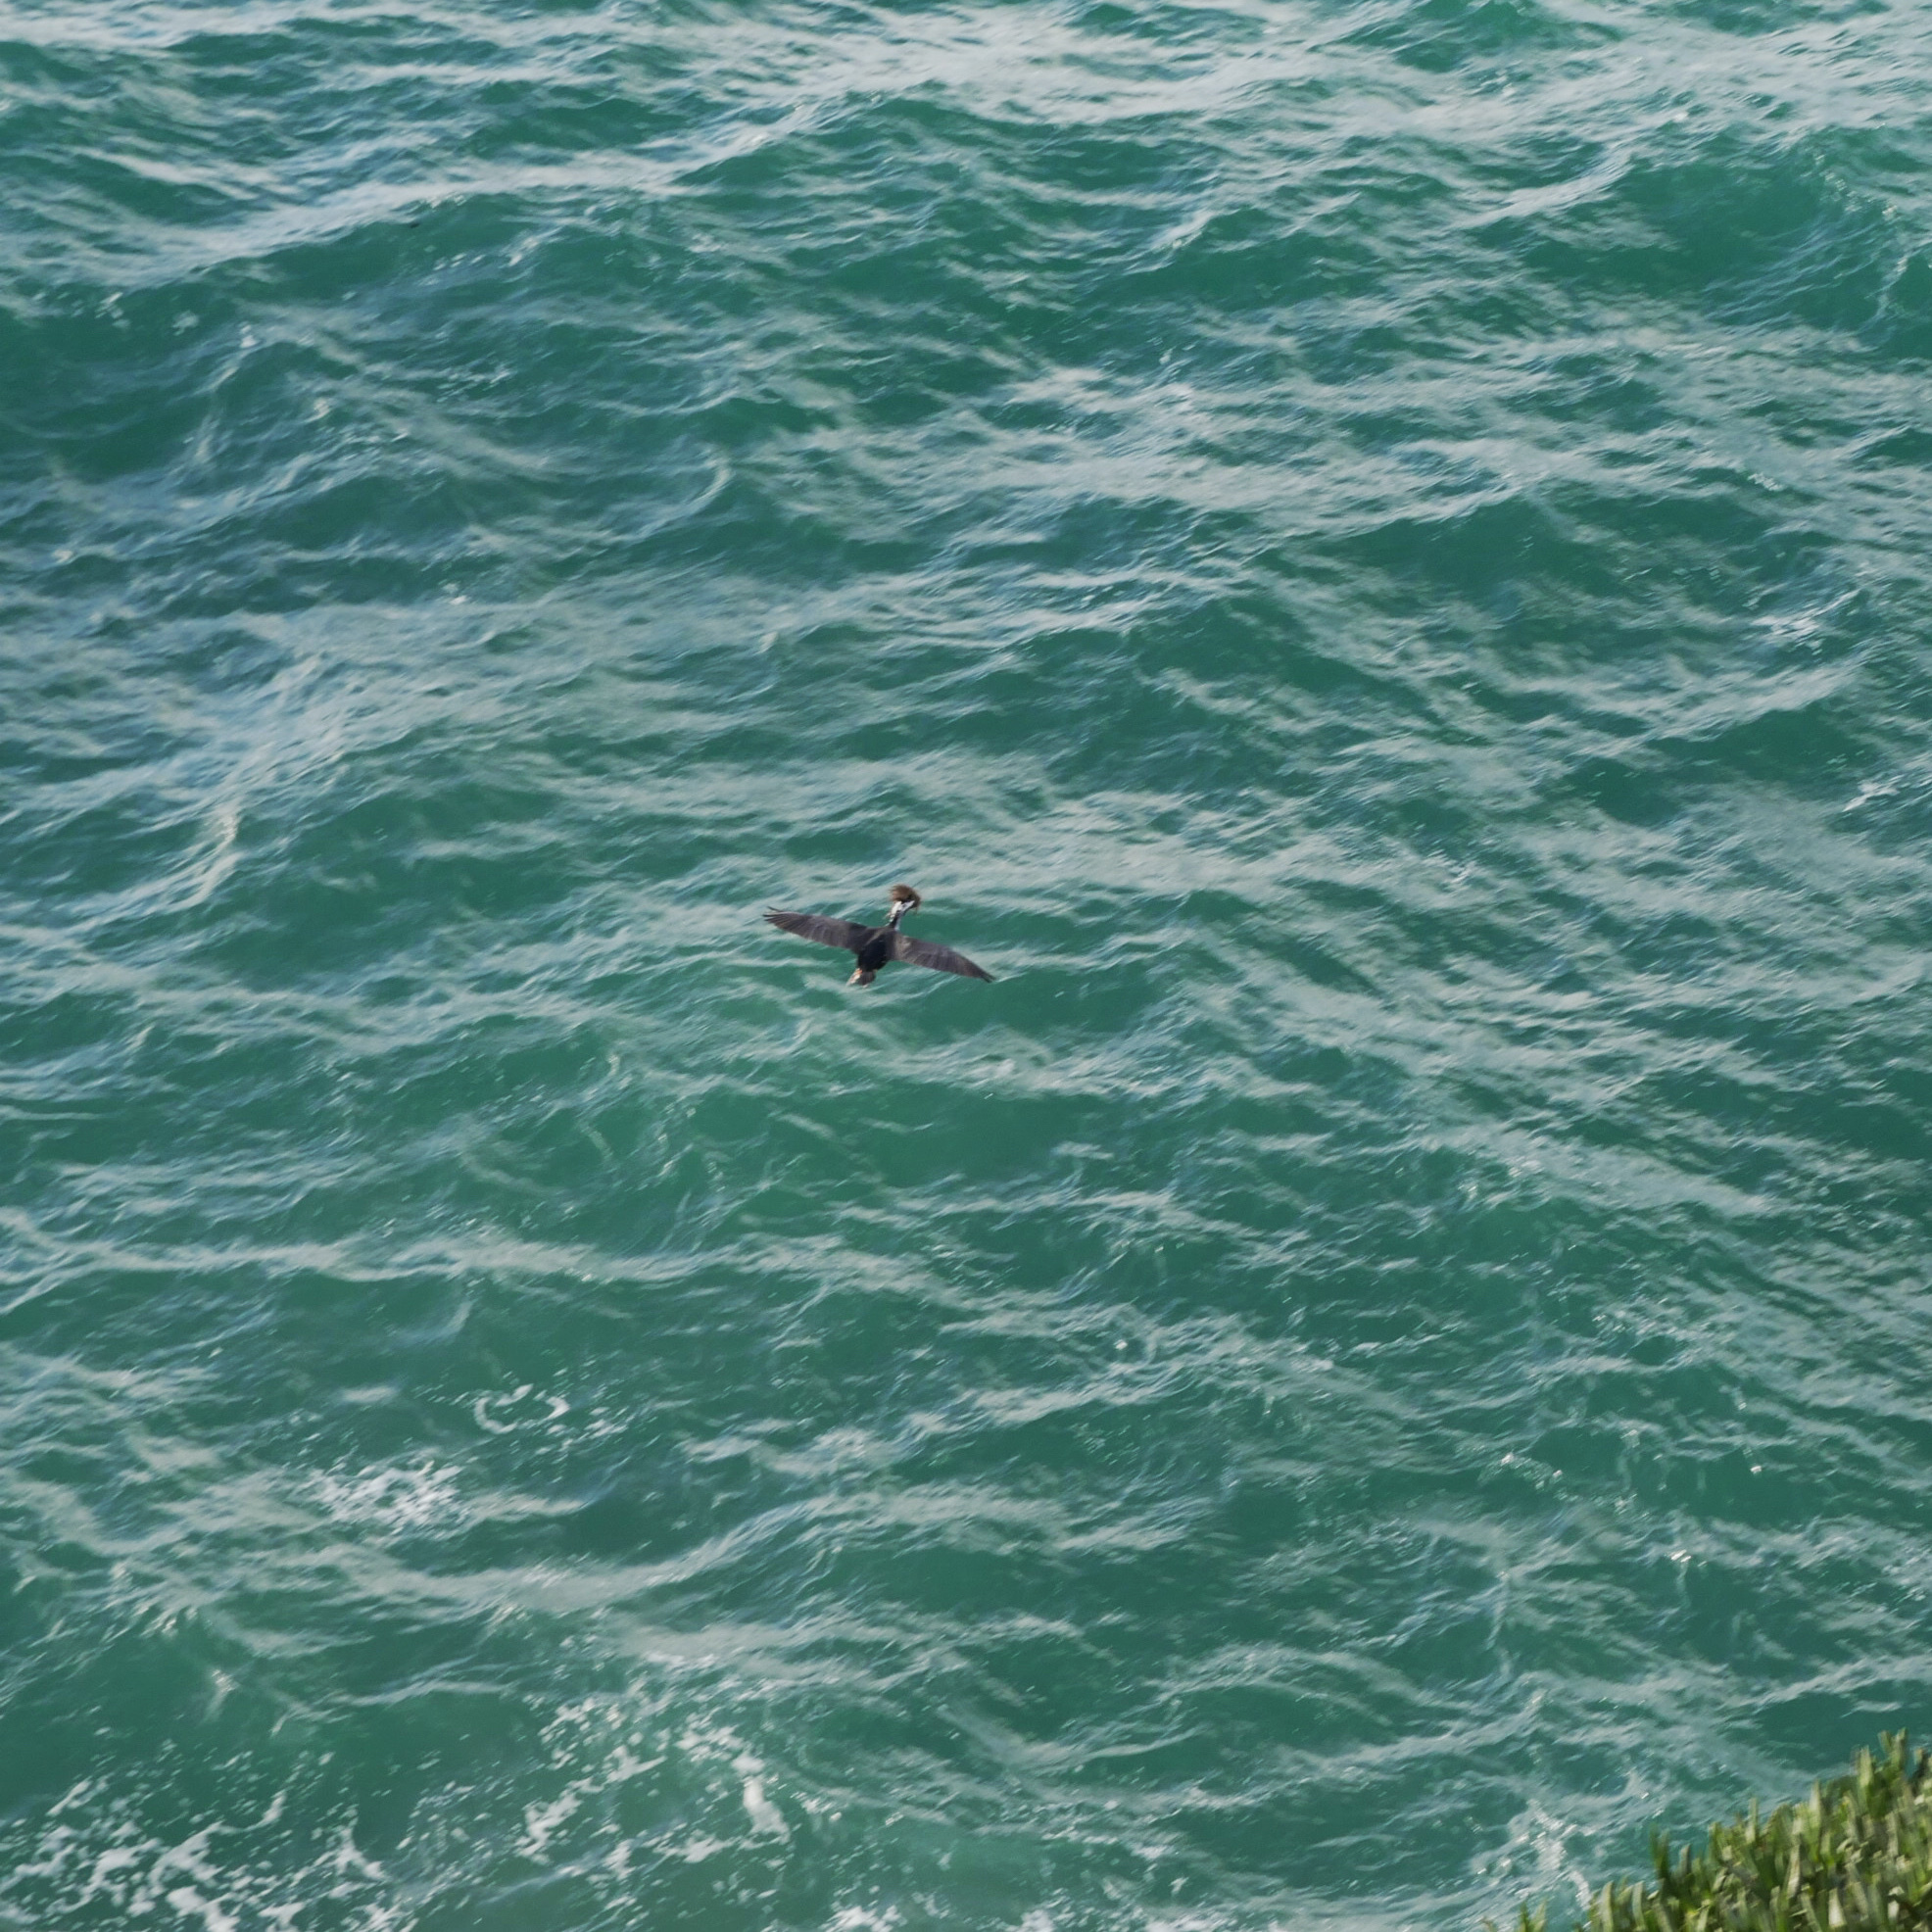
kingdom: Animalia
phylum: Chordata
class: Aves
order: Suliformes
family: Phalacrocoracidae
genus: Phalacrocorax
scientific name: Phalacrocorax punctatus
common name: Spotted shag
